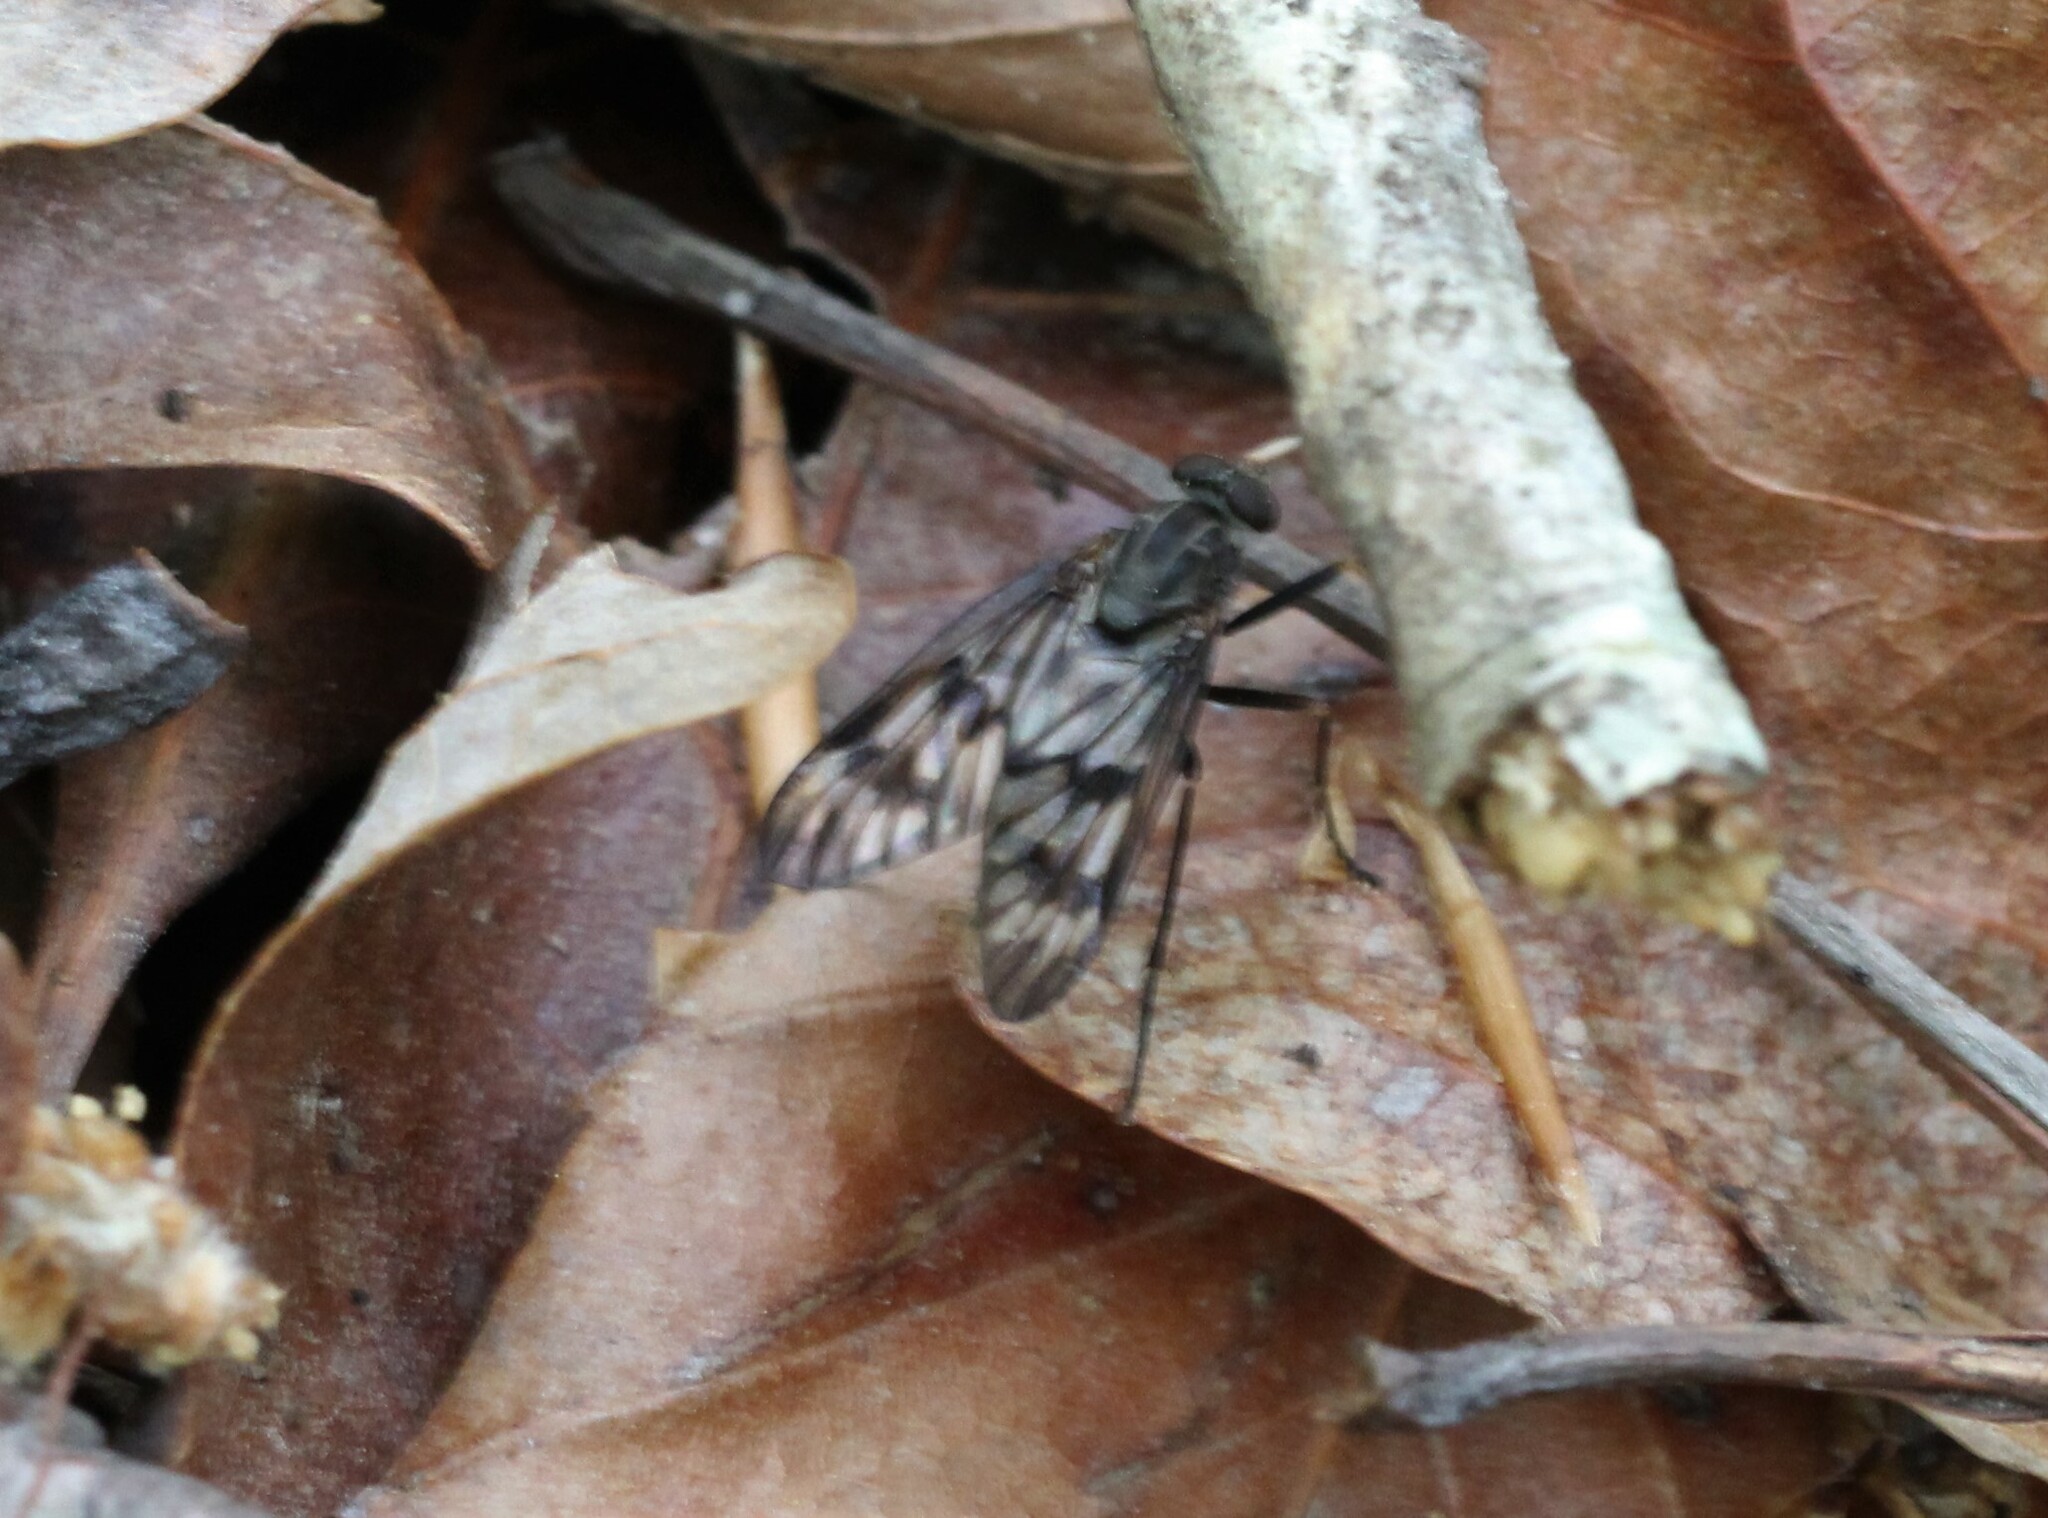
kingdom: Animalia
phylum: Arthropoda
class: Insecta
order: Diptera
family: Rhagionidae
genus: Rhagio
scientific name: Rhagio mystaceus
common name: Common snipe fly
